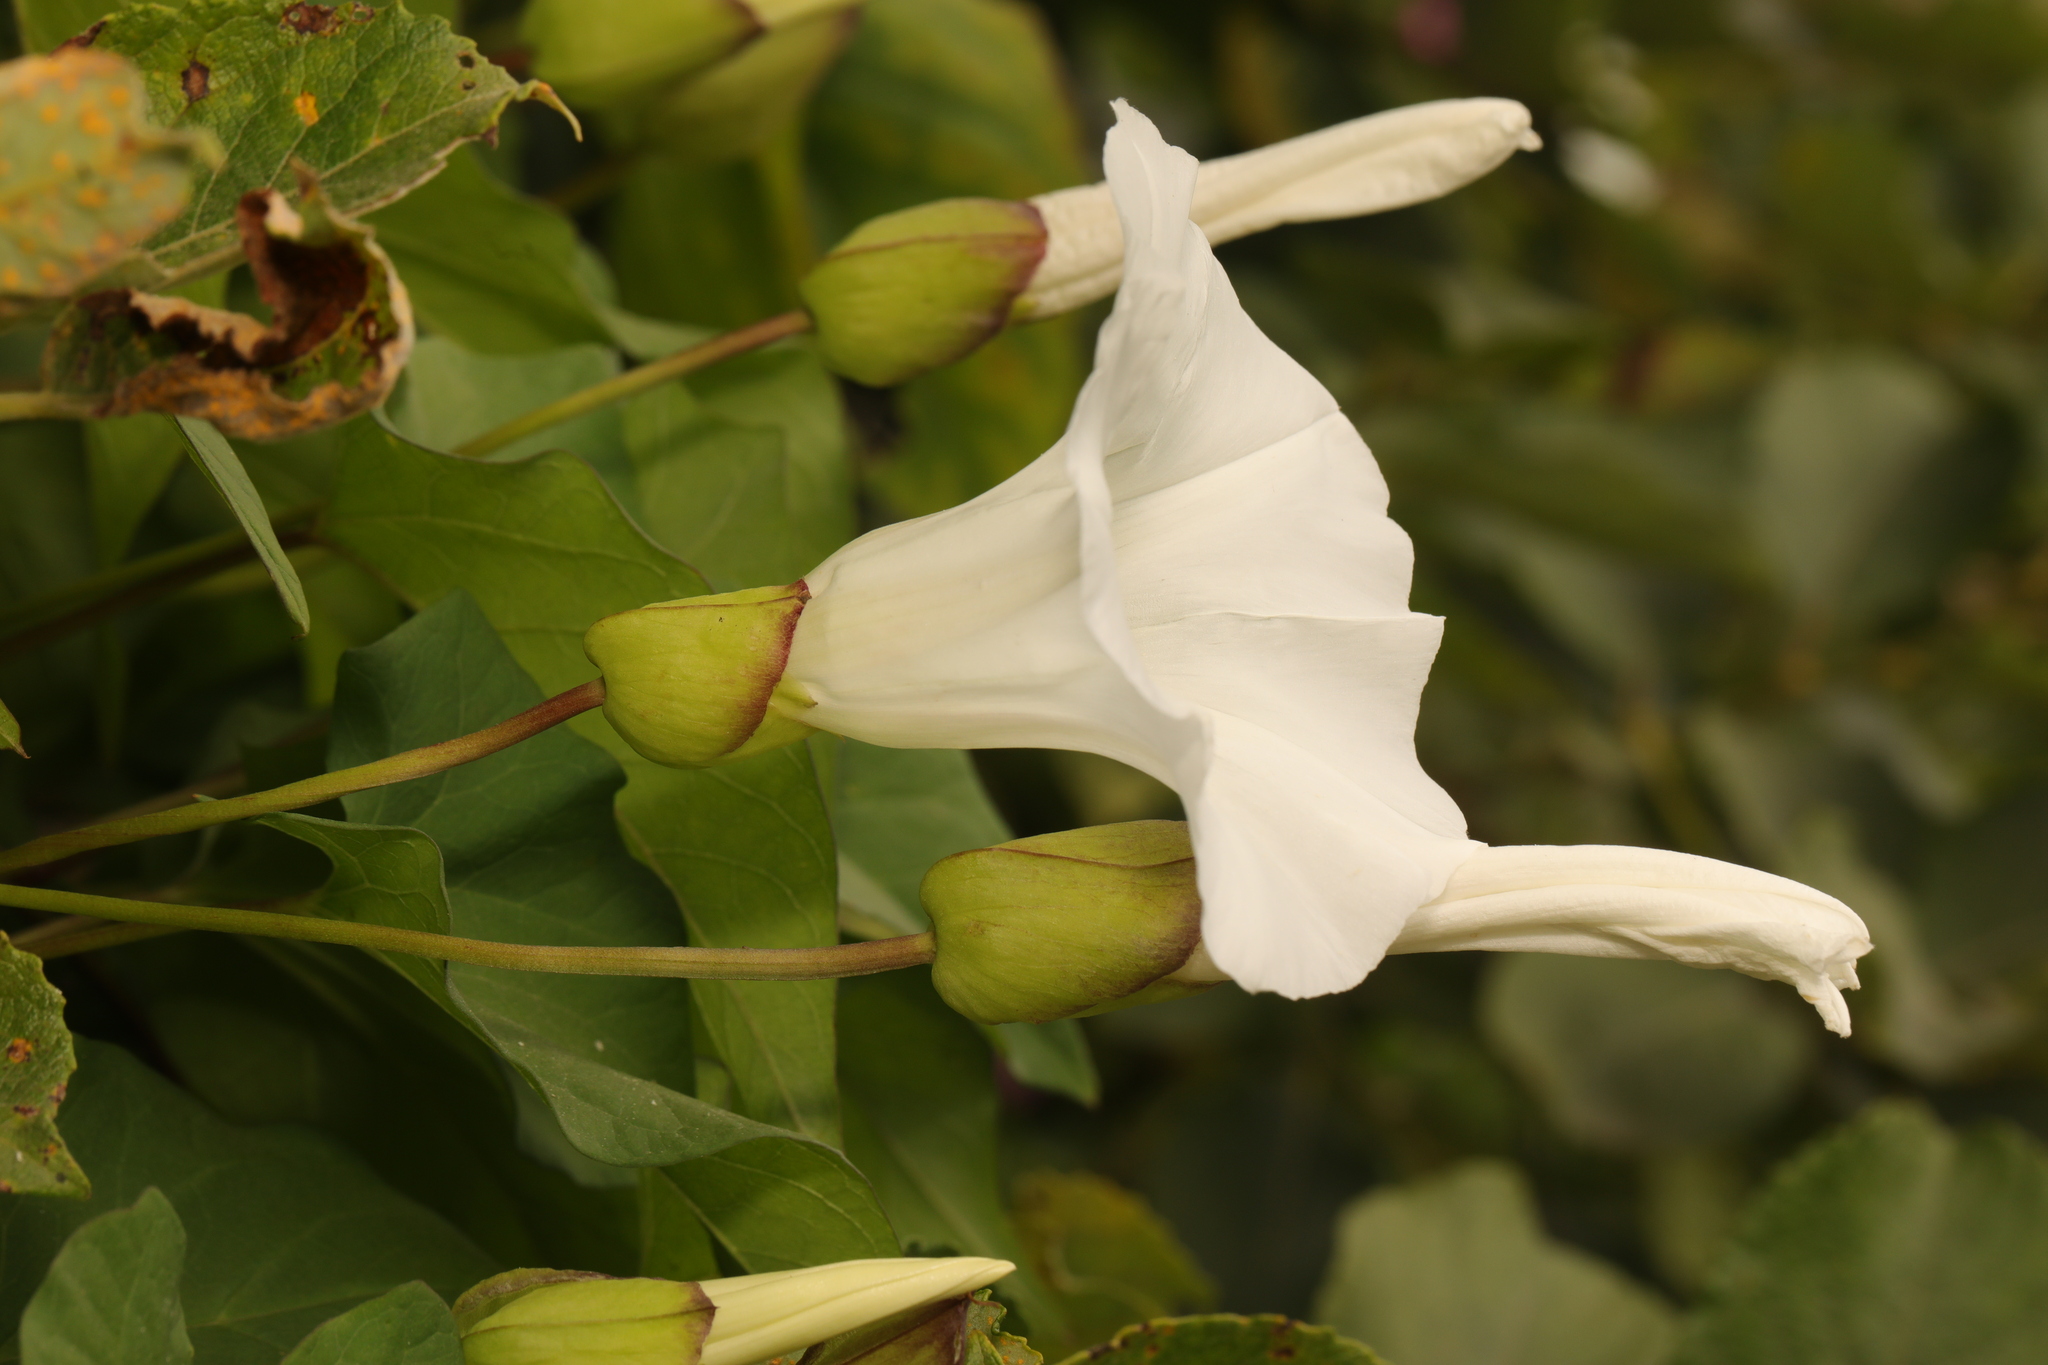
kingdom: Plantae
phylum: Tracheophyta
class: Magnoliopsida
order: Solanales
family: Convolvulaceae
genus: Calystegia
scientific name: Calystegia silvatica
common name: Large bindweed
